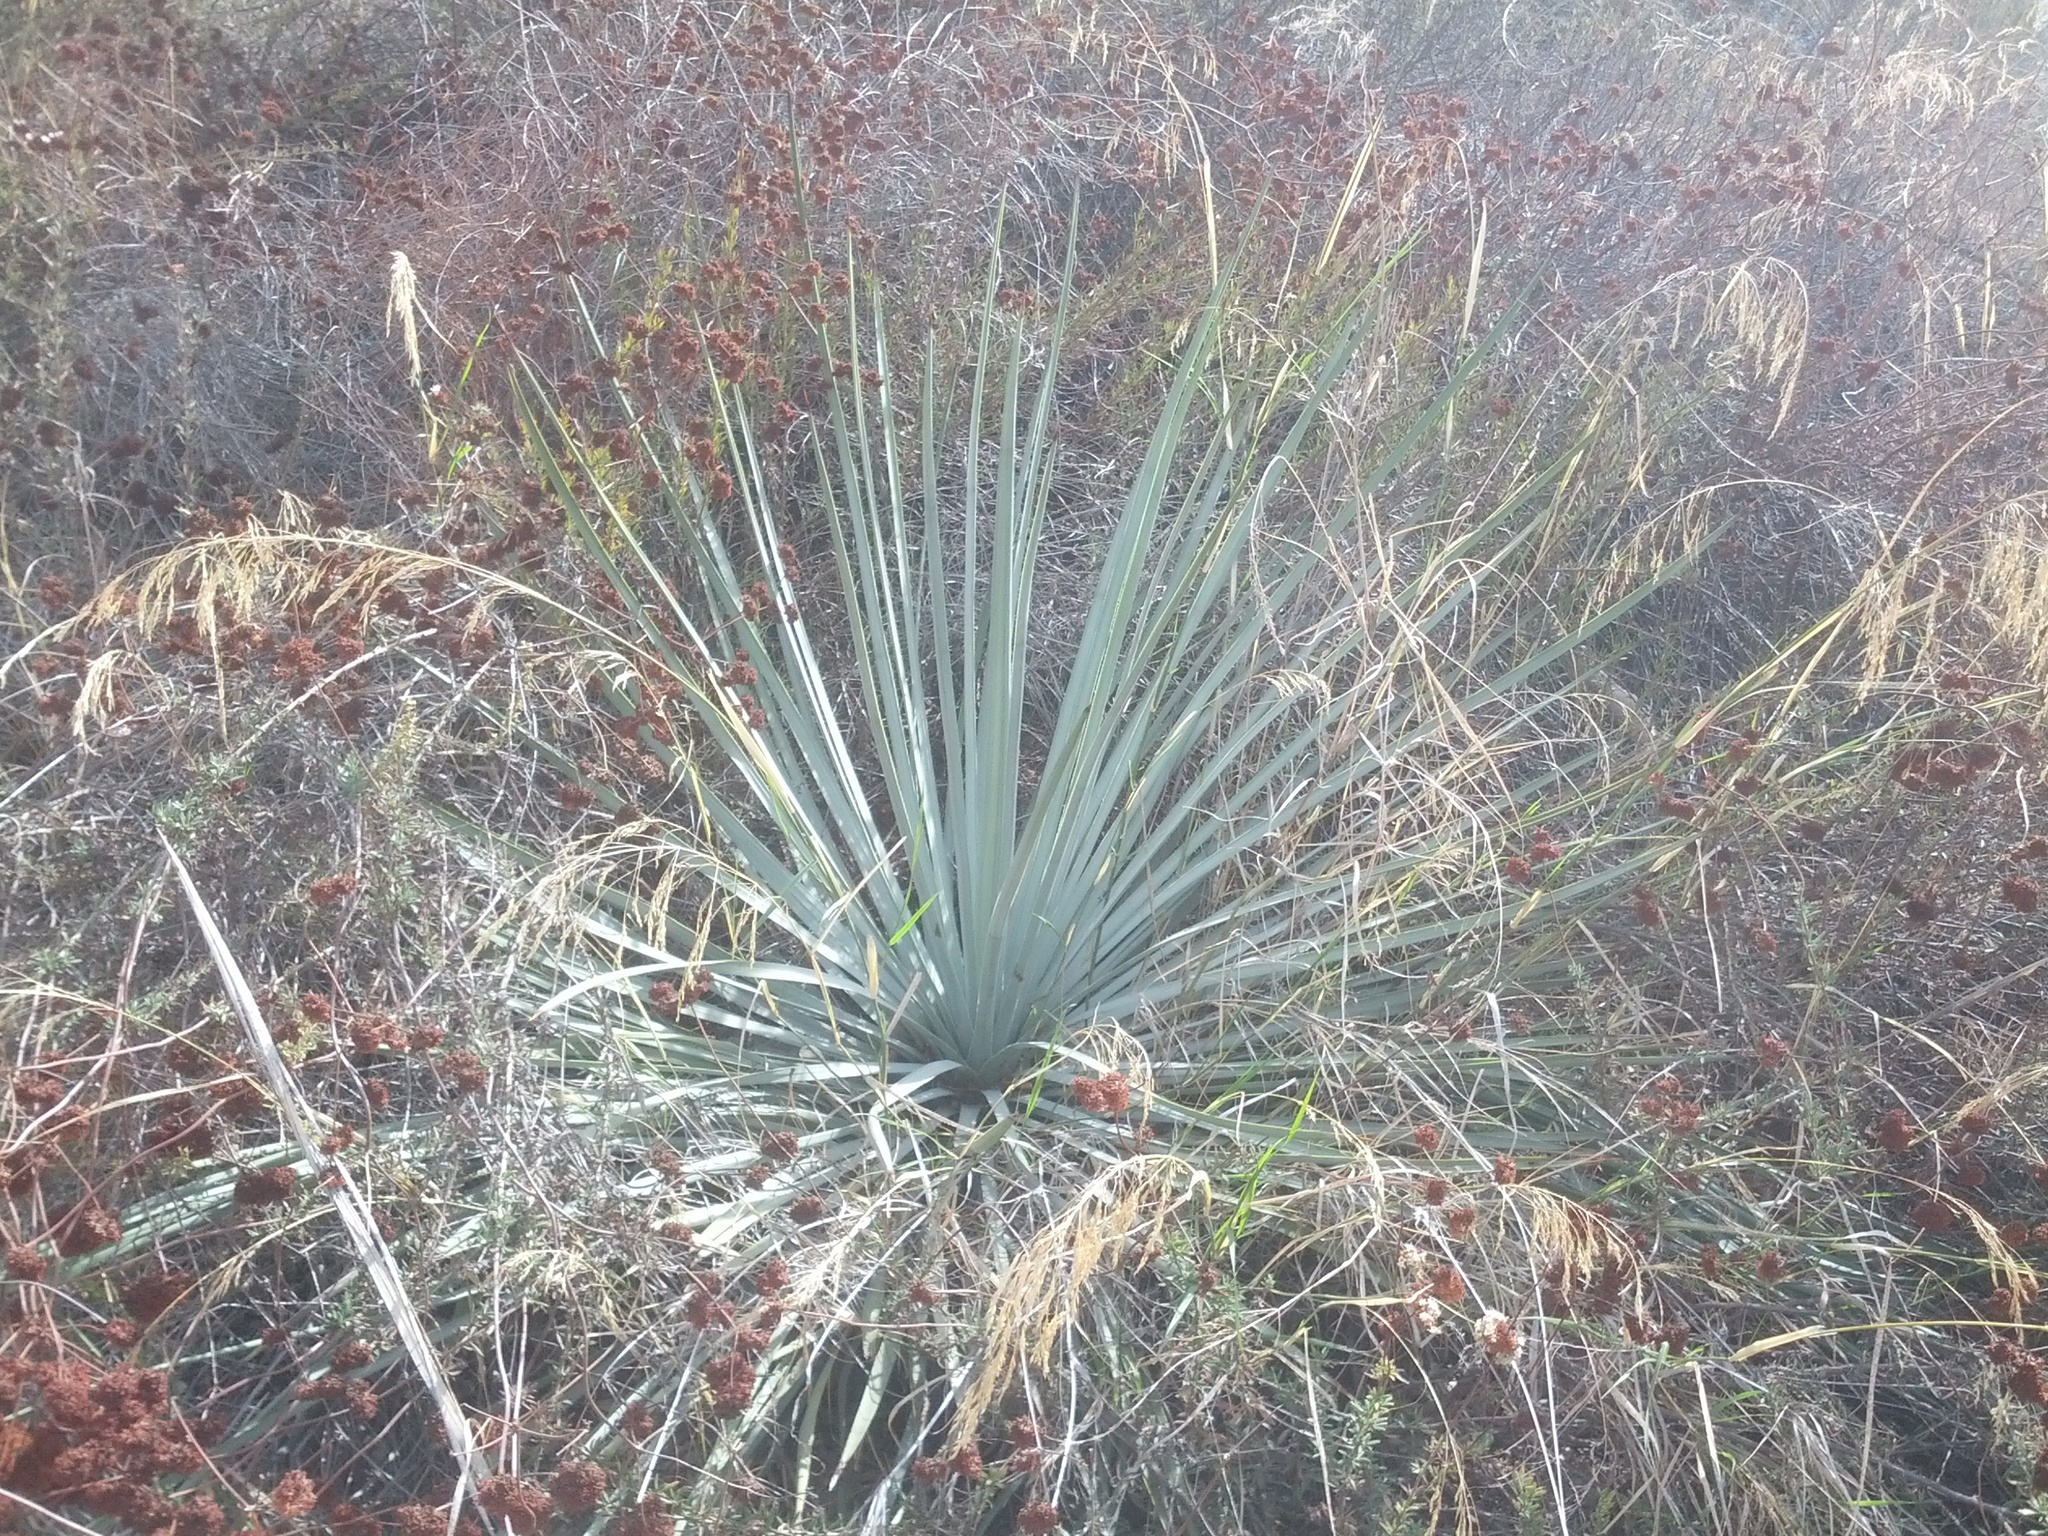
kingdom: Plantae
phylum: Tracheophyta
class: Liliopsida
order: Asparagales
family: Asparagaceae
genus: Hesperoyucca
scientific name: Hesperoyucca whipplei
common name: Our lord's-candle
